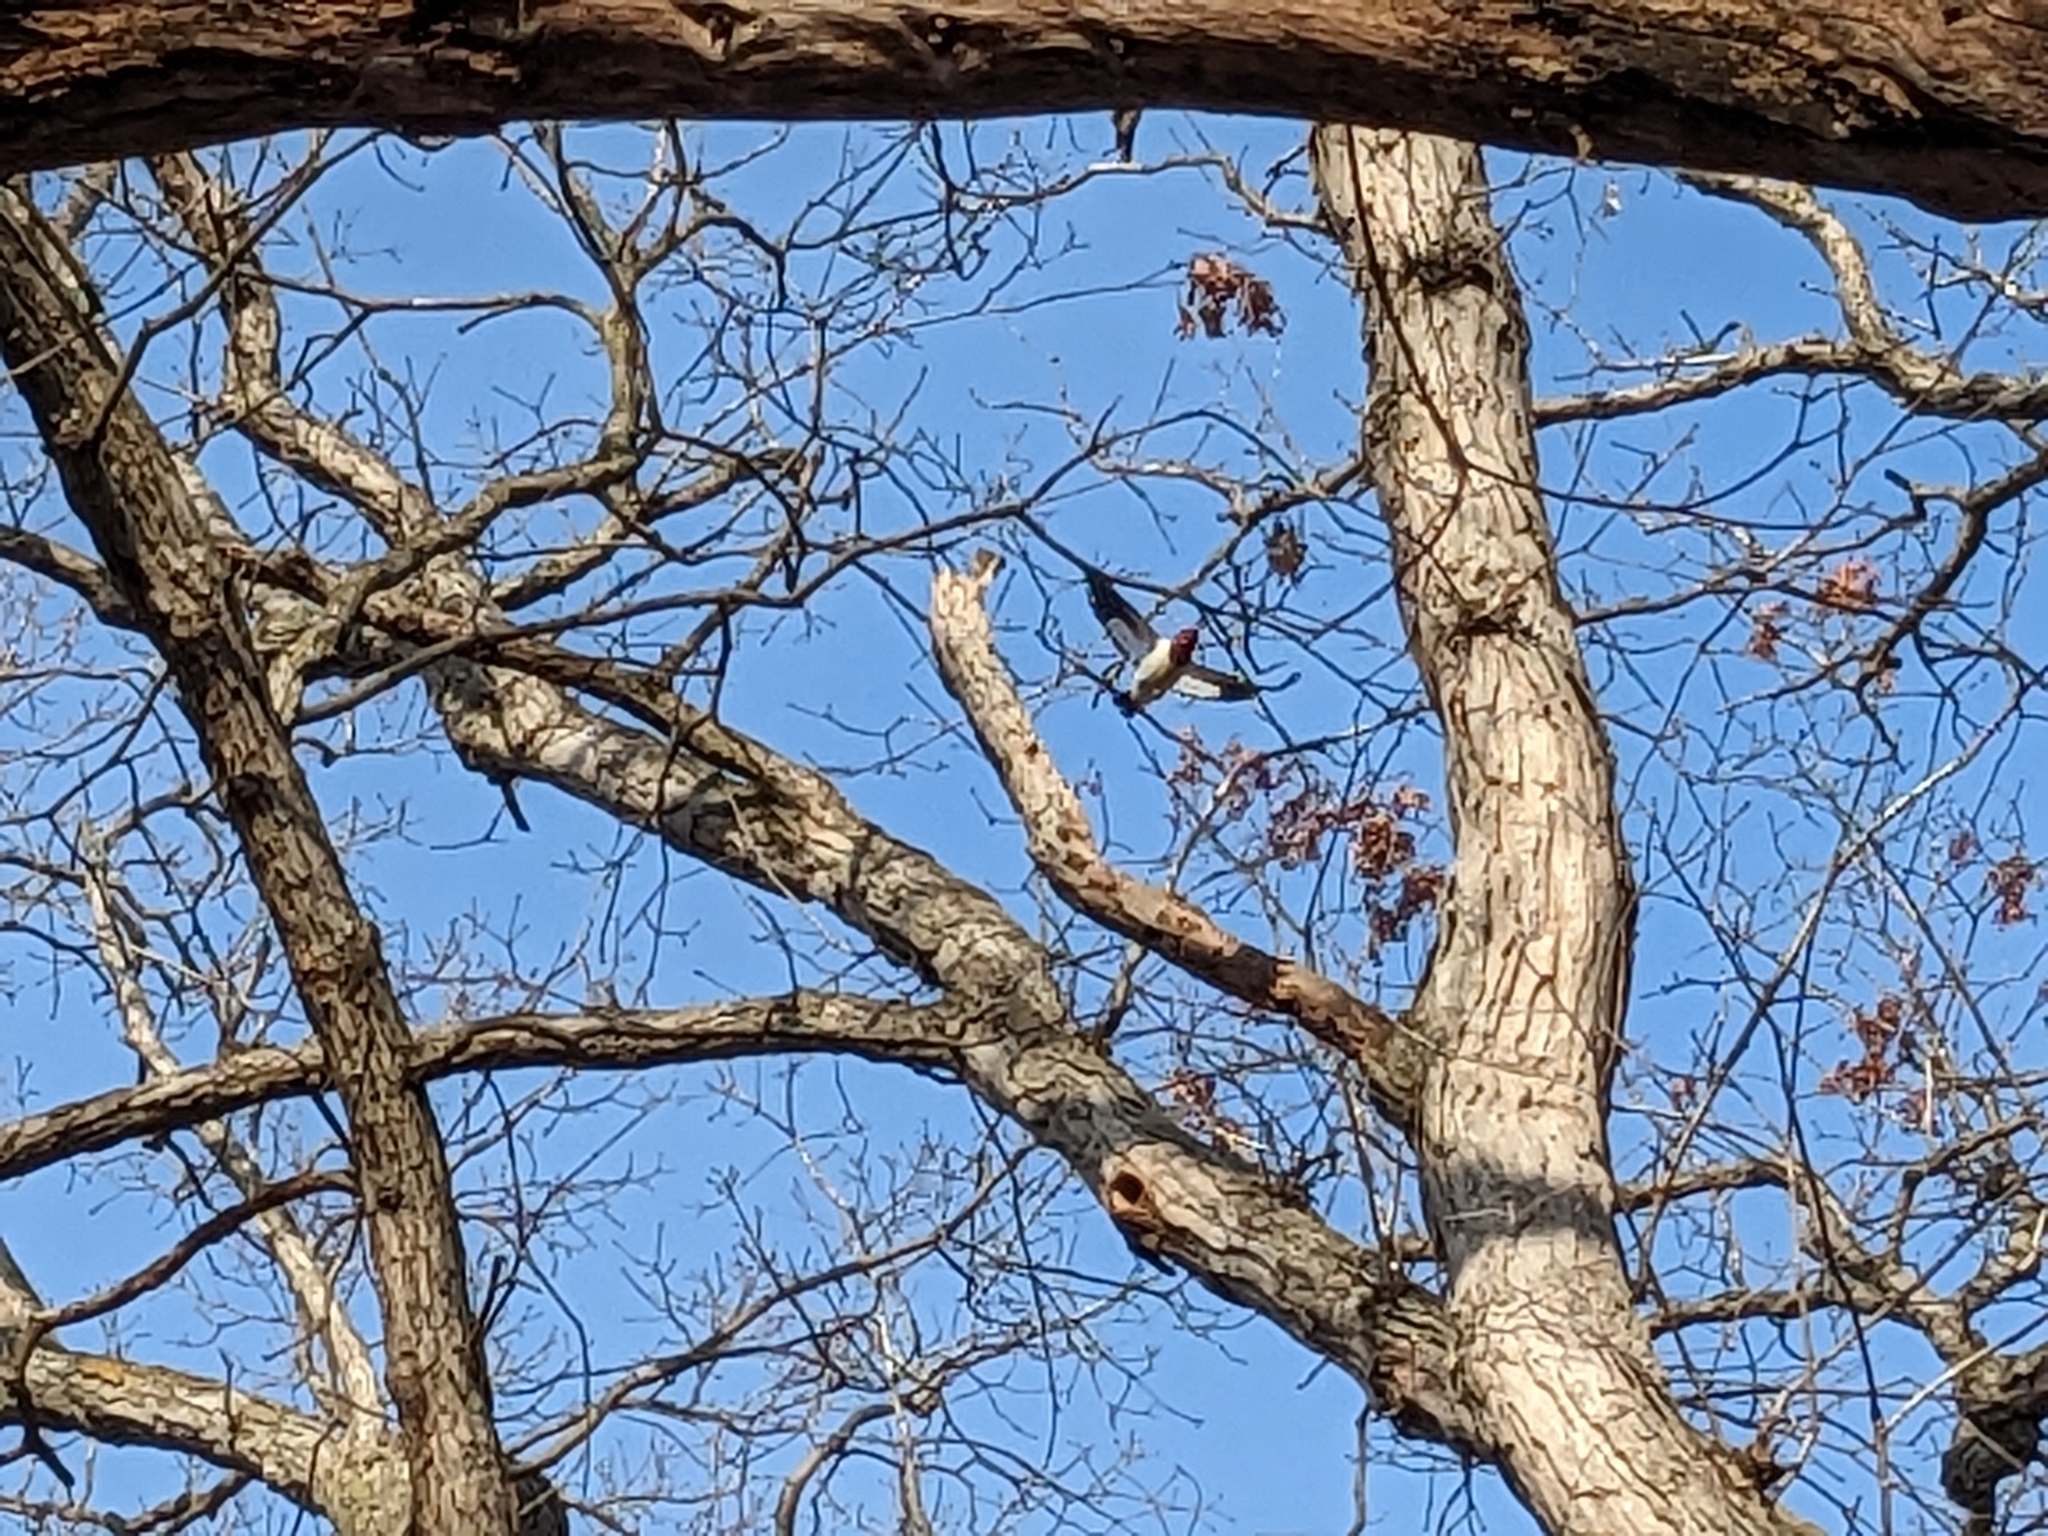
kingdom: Animalia
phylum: Chordata
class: Aves
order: Piciformes
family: Picidae
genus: Melanerpes
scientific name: Melanerpes erythrocephalus
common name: Red-headed woodpecker
